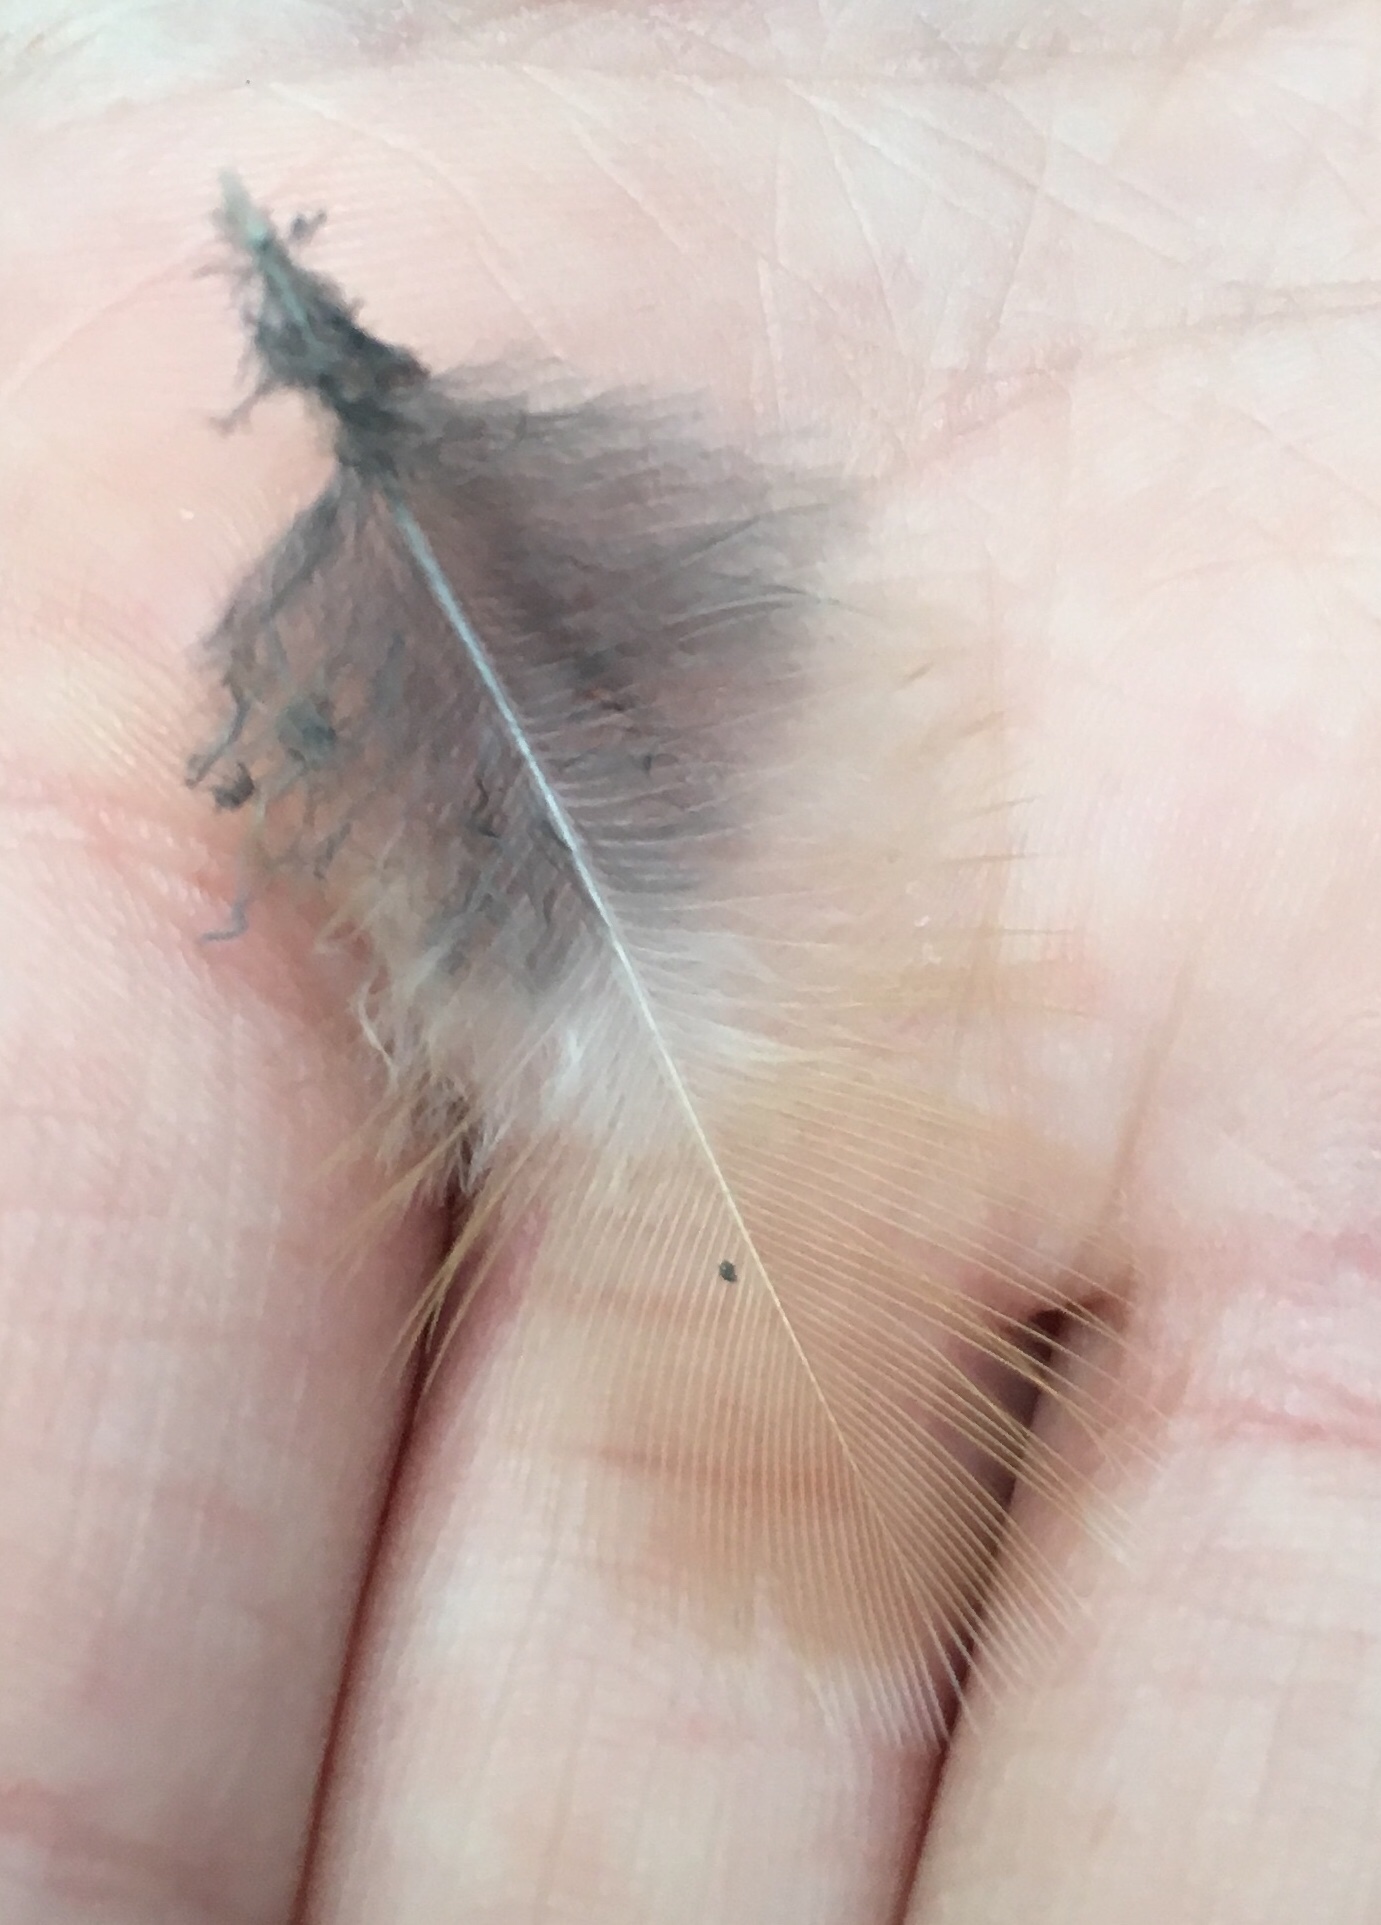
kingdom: Animalia
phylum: Chordata
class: Aves
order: Passeriformes
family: Turdidae
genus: Turdus
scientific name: Turdus migratorius
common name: American robin
